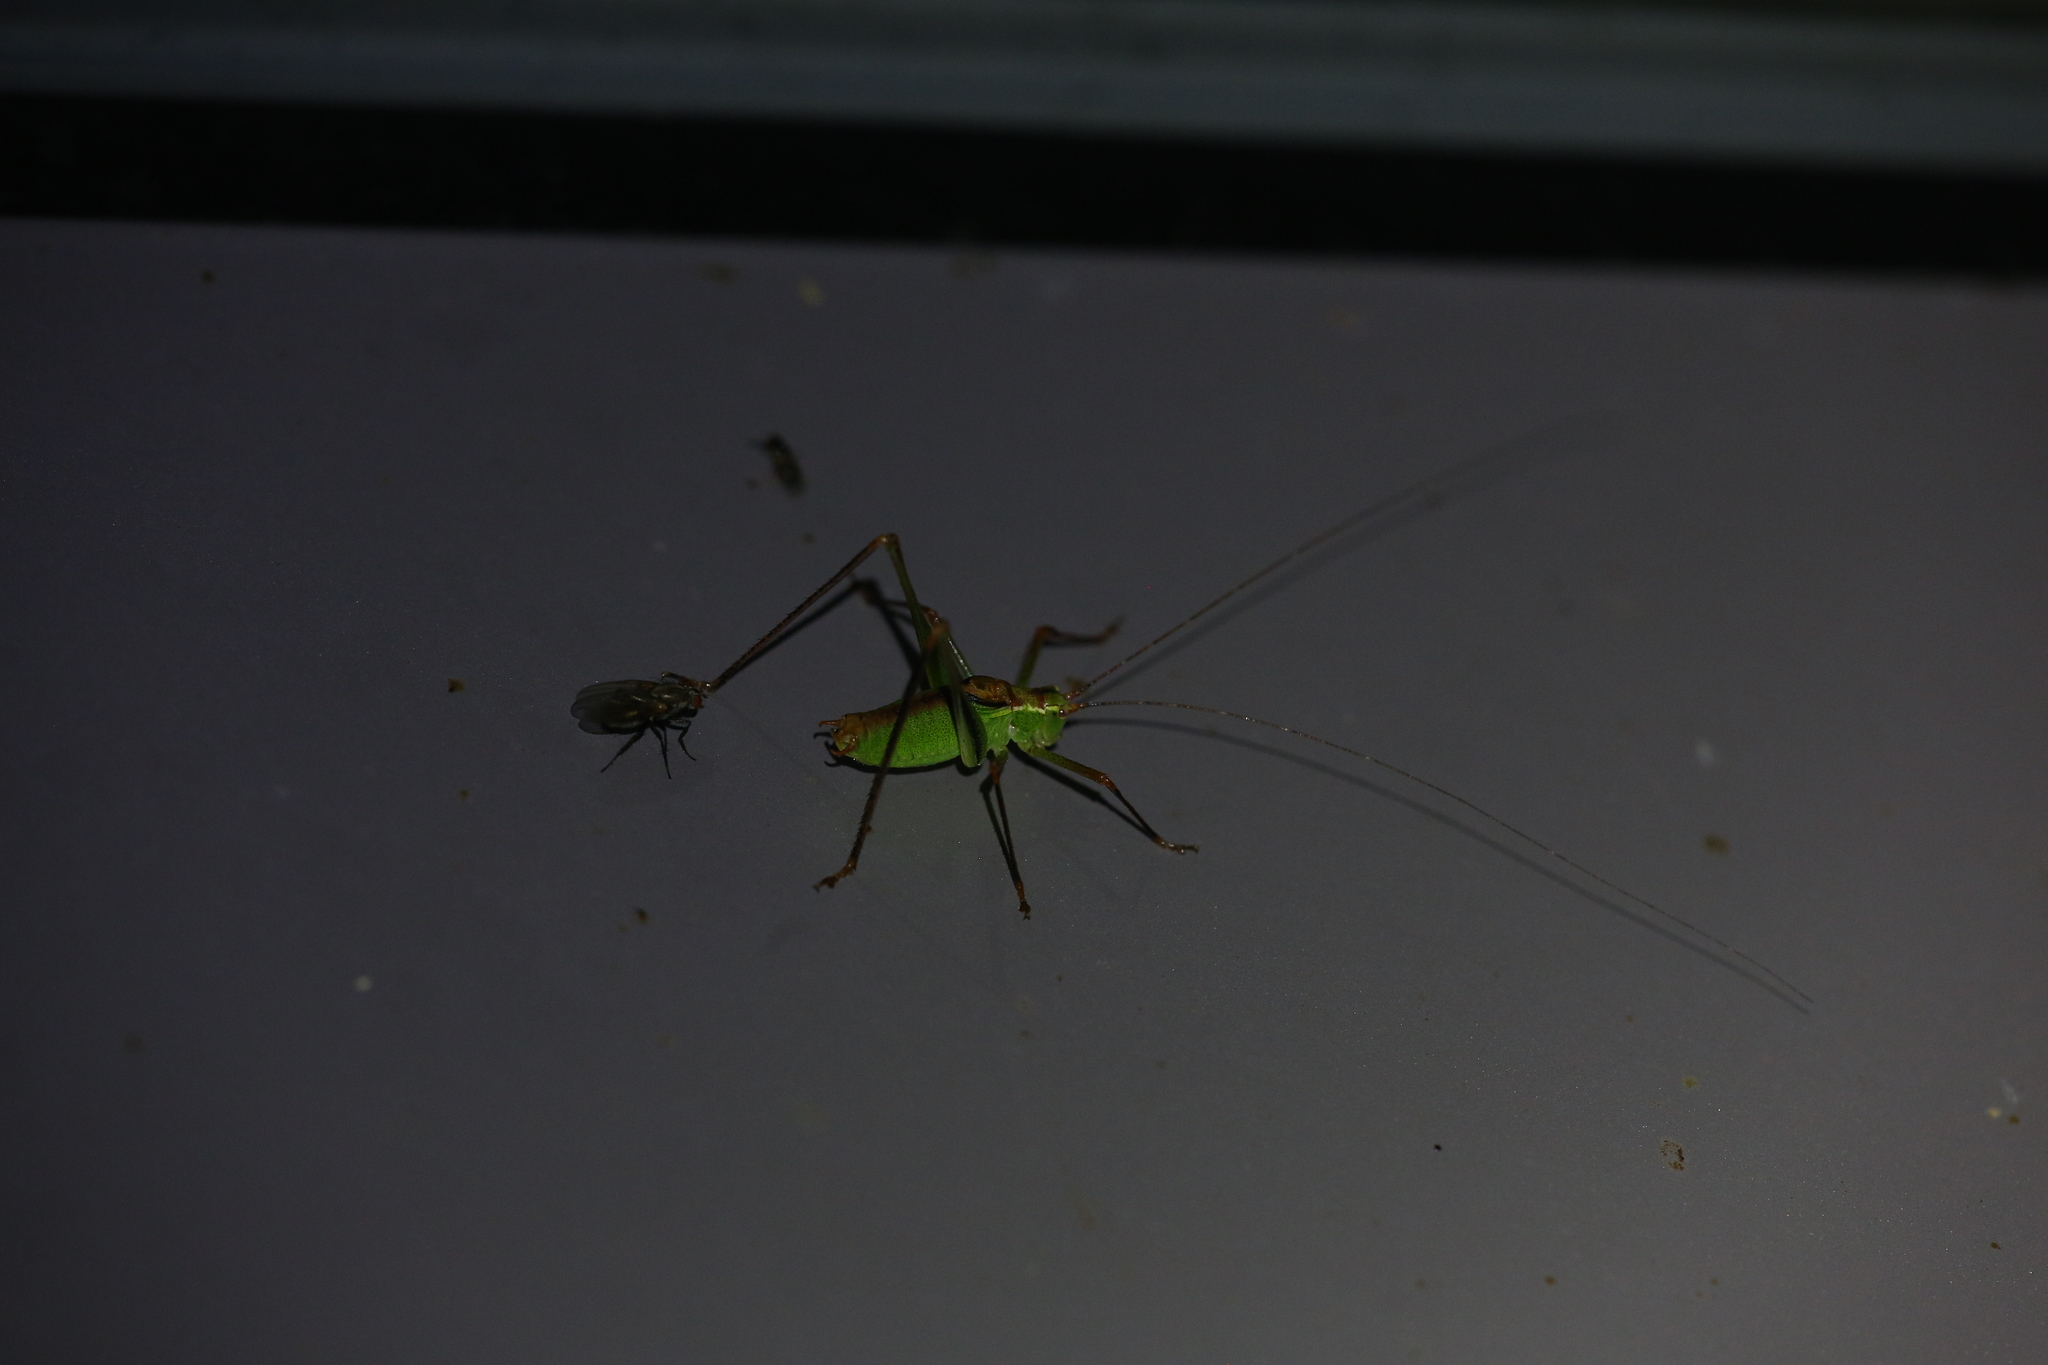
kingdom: Animalia
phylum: Arthropoda
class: Insecta
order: Orthoptera
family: Tettigoniidae
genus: Leptophyes
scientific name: Leptophyes punctatissima
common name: Speckled bush-cricket
